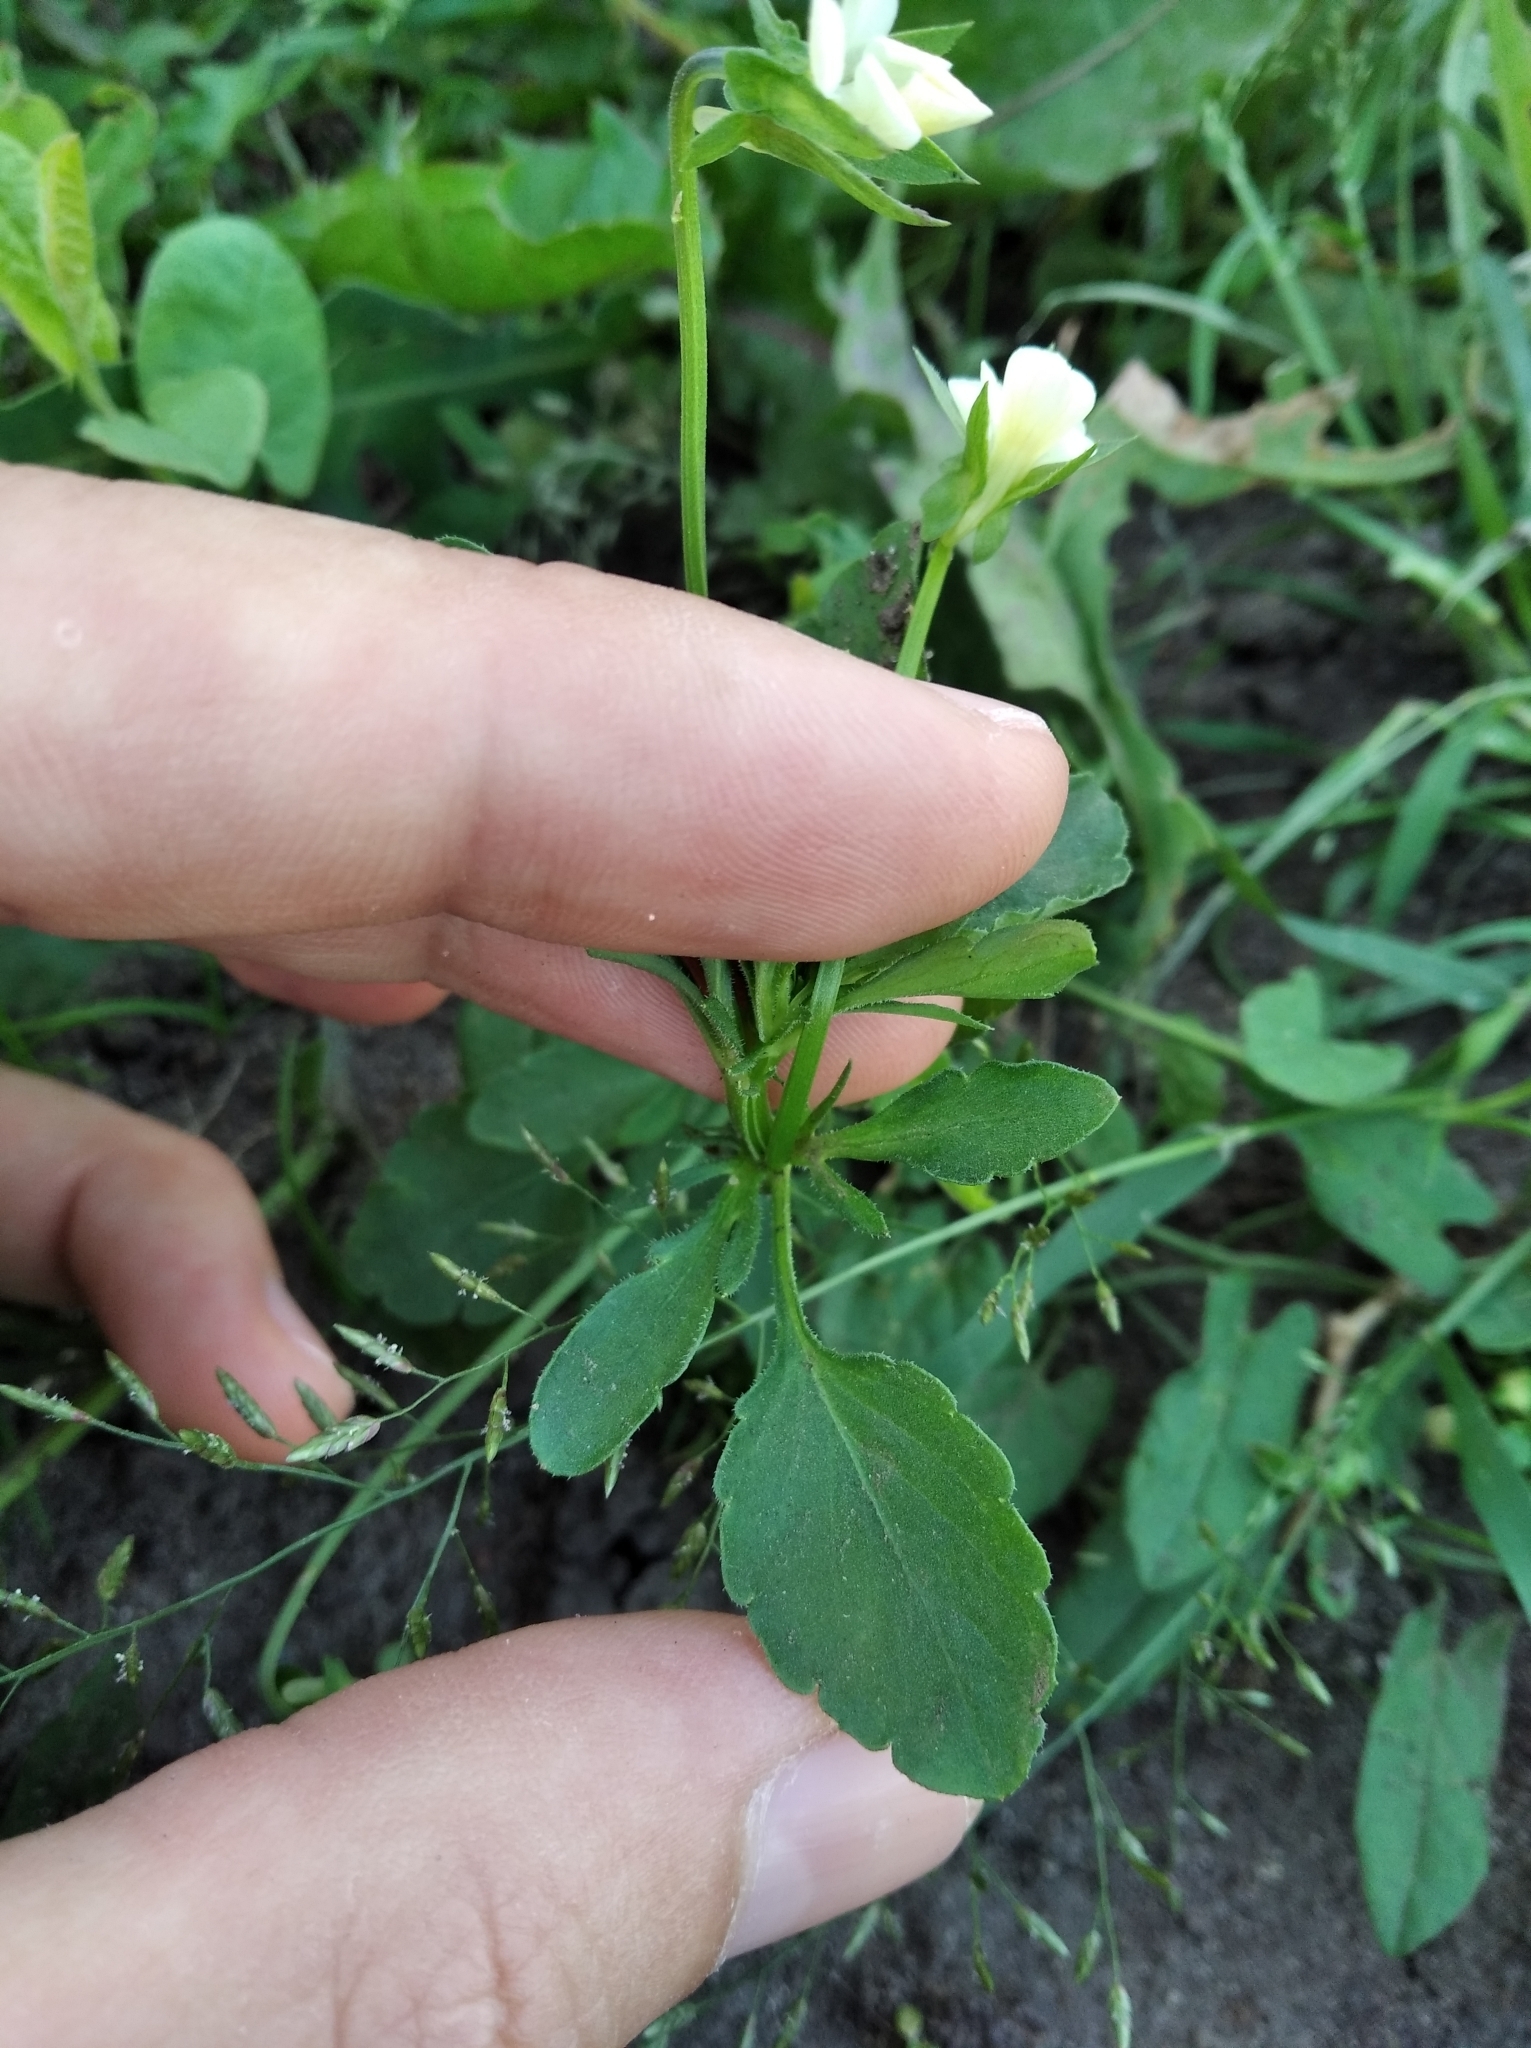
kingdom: Plantae
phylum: Tracheophyta
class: Magnoliopsida
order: Malpighiales
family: Violaceae
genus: Viola
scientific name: Viola arvensis
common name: Field pansy
